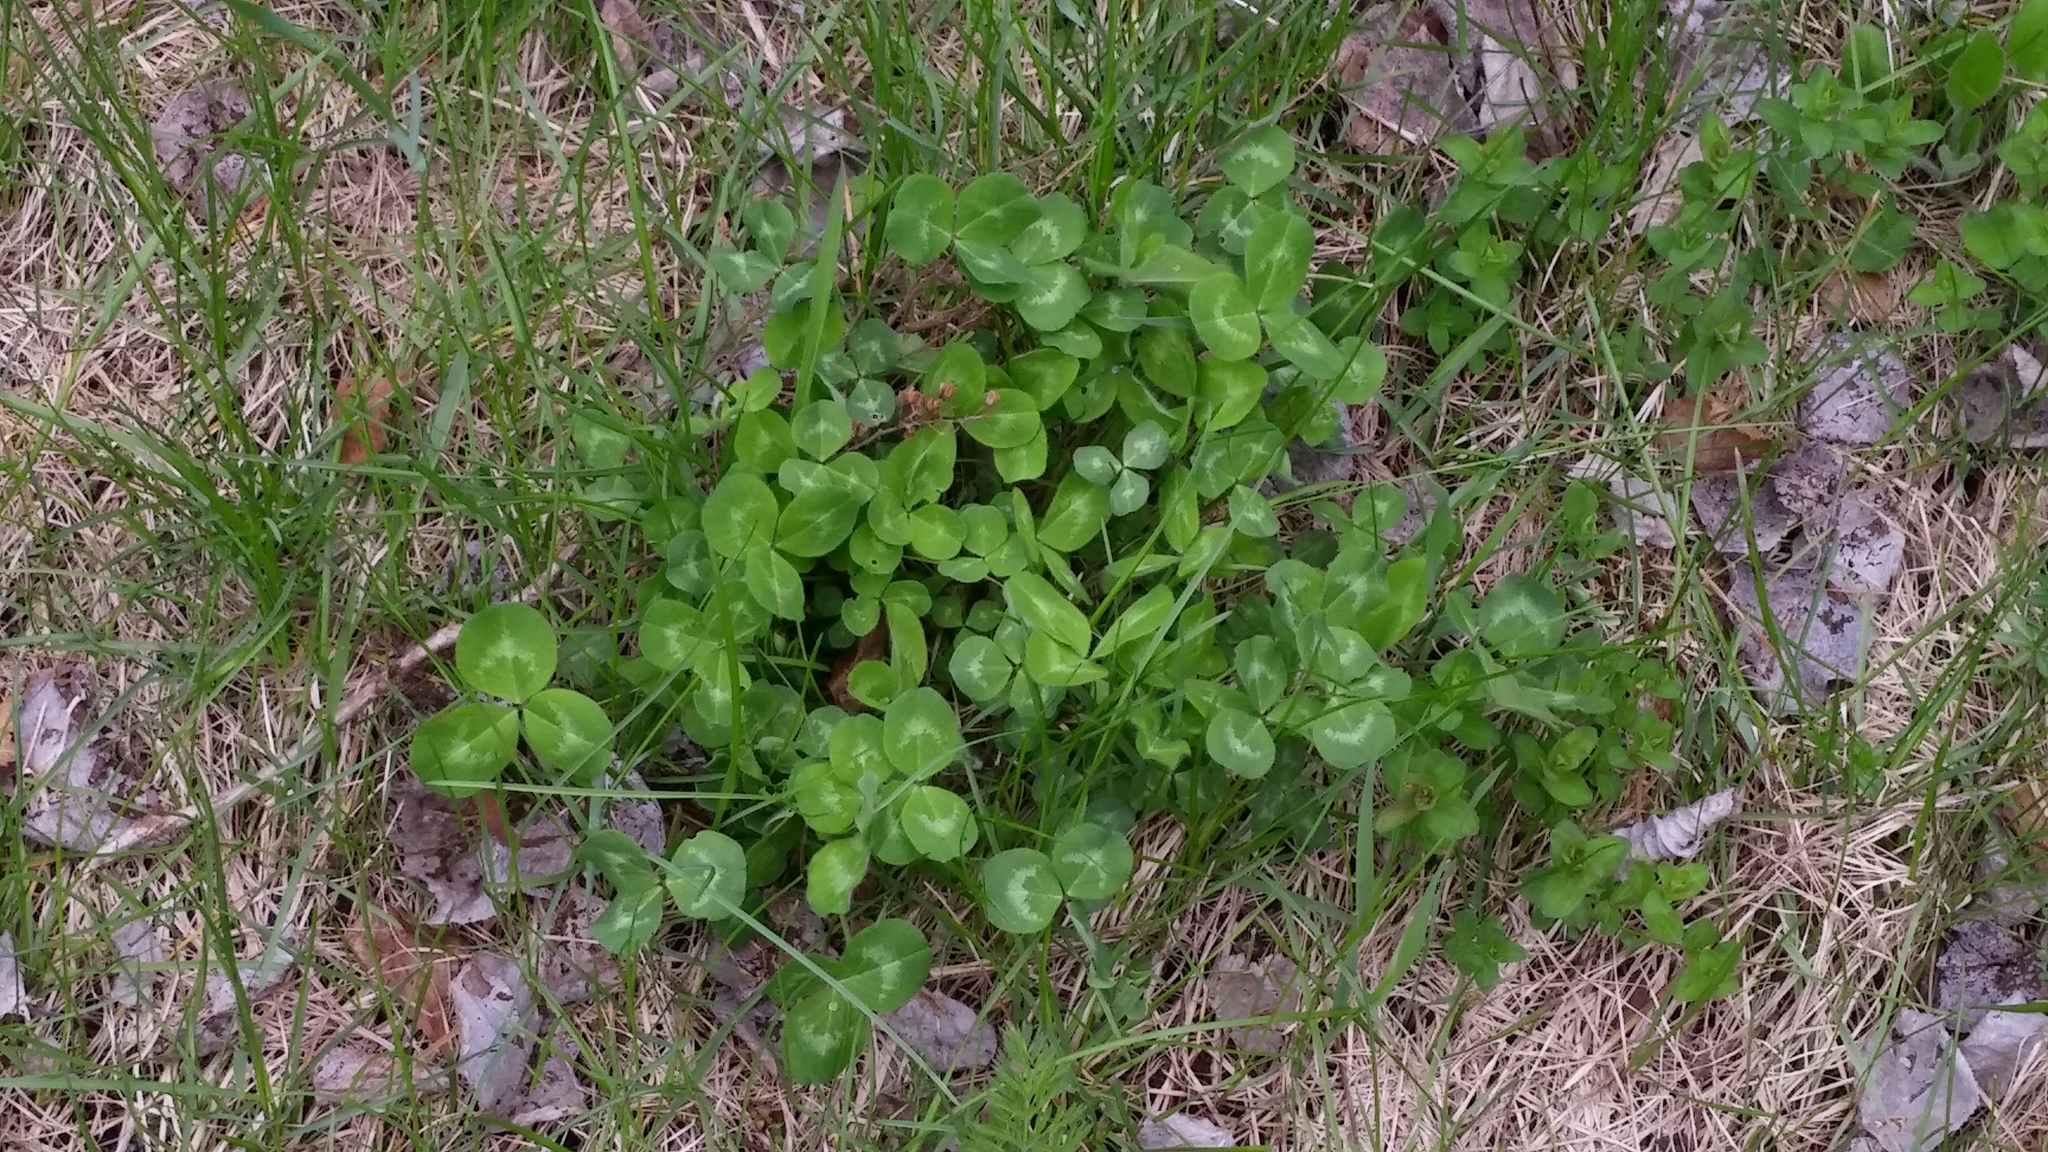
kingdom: Plantae
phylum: Tracheophyta
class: Magnoliopsida
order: Fabales
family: Fabaceae
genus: Trifolium
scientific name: Trifolium pratense
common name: Red clover
